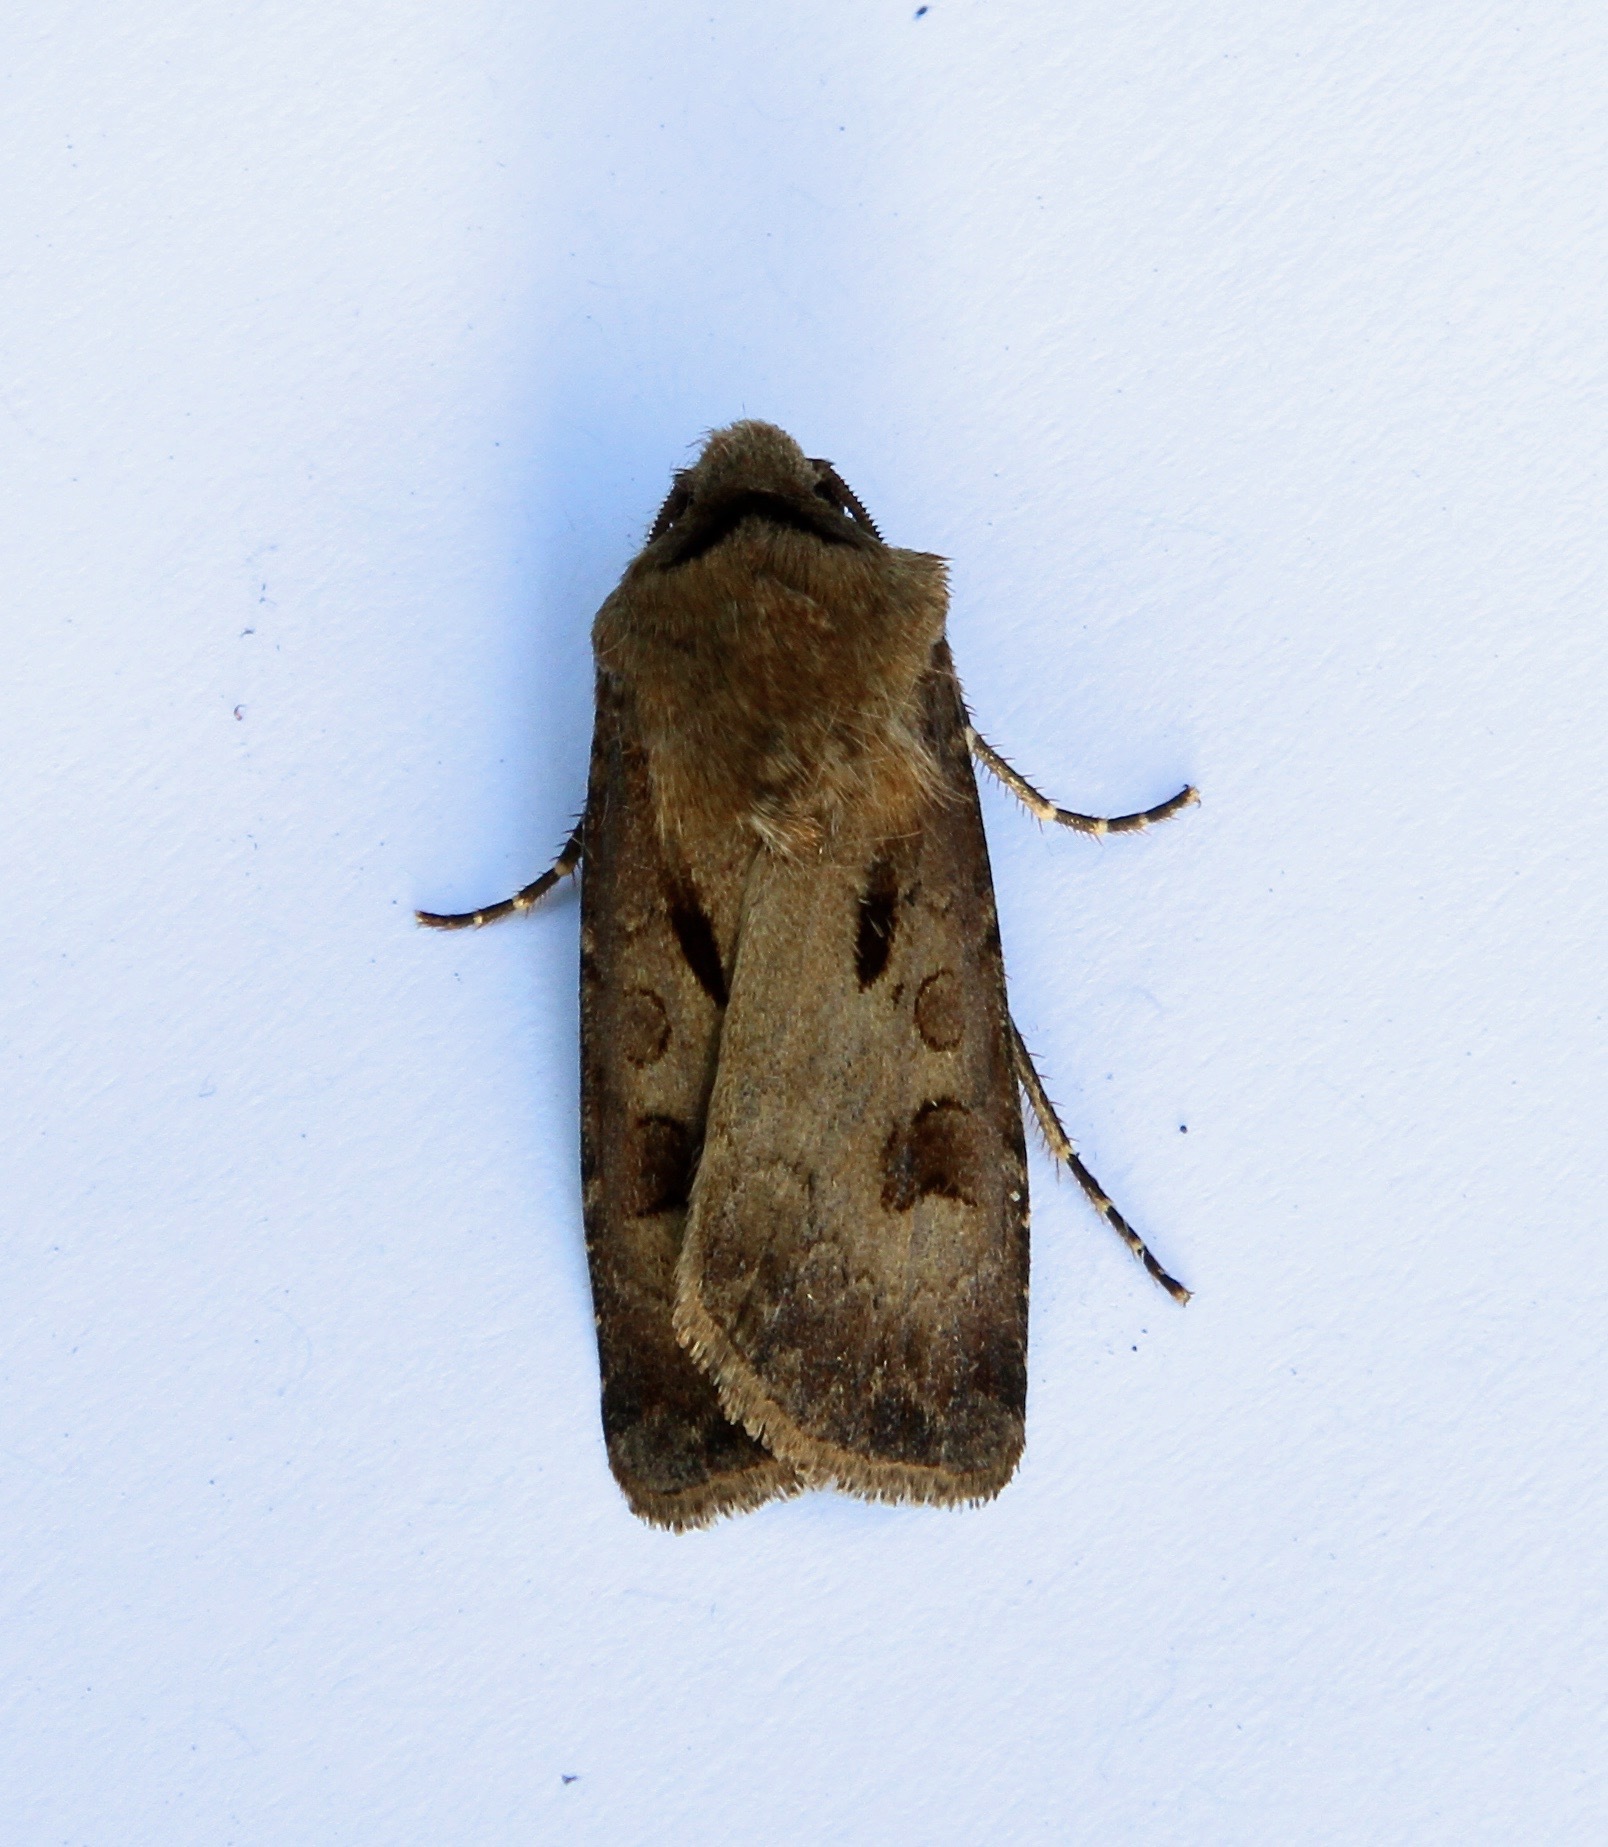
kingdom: Animalia
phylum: Arthropoda
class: Insecta
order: Lepidoptera
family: Noctuidae
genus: Agrotis
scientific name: Agrotis exclamationis
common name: Heart and dart
